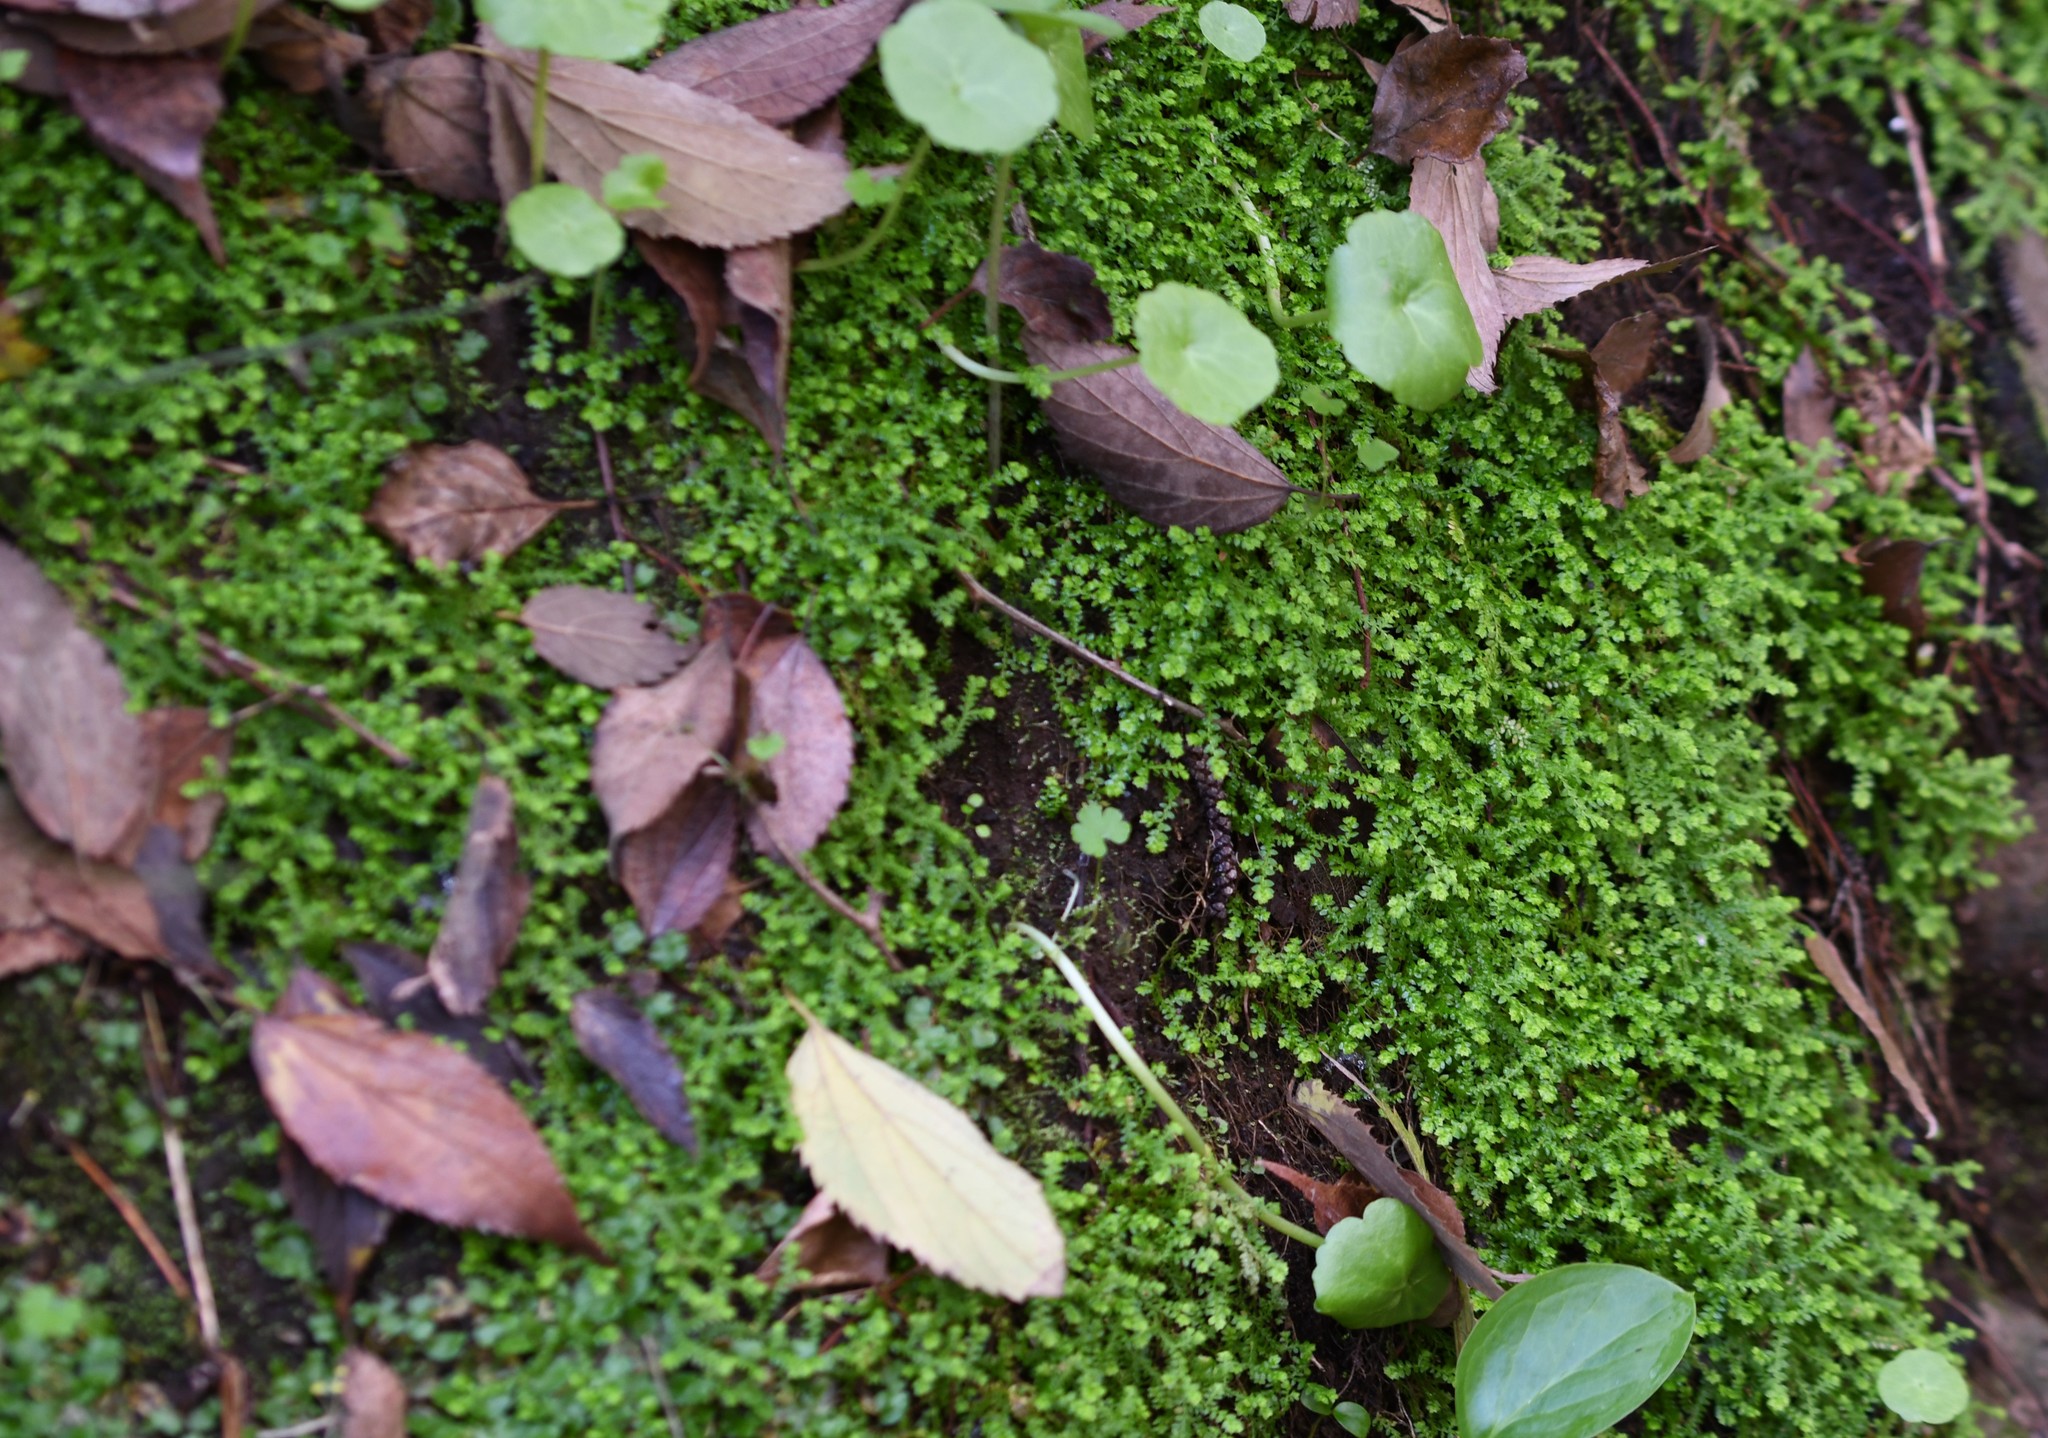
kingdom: Plantae
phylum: Tracheophyta
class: Lycopodiopsida
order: Selaginellales
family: Selaginellaceae
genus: Selaginella
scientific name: Selaginella denticulata
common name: Toothed-leaved clubmoss
